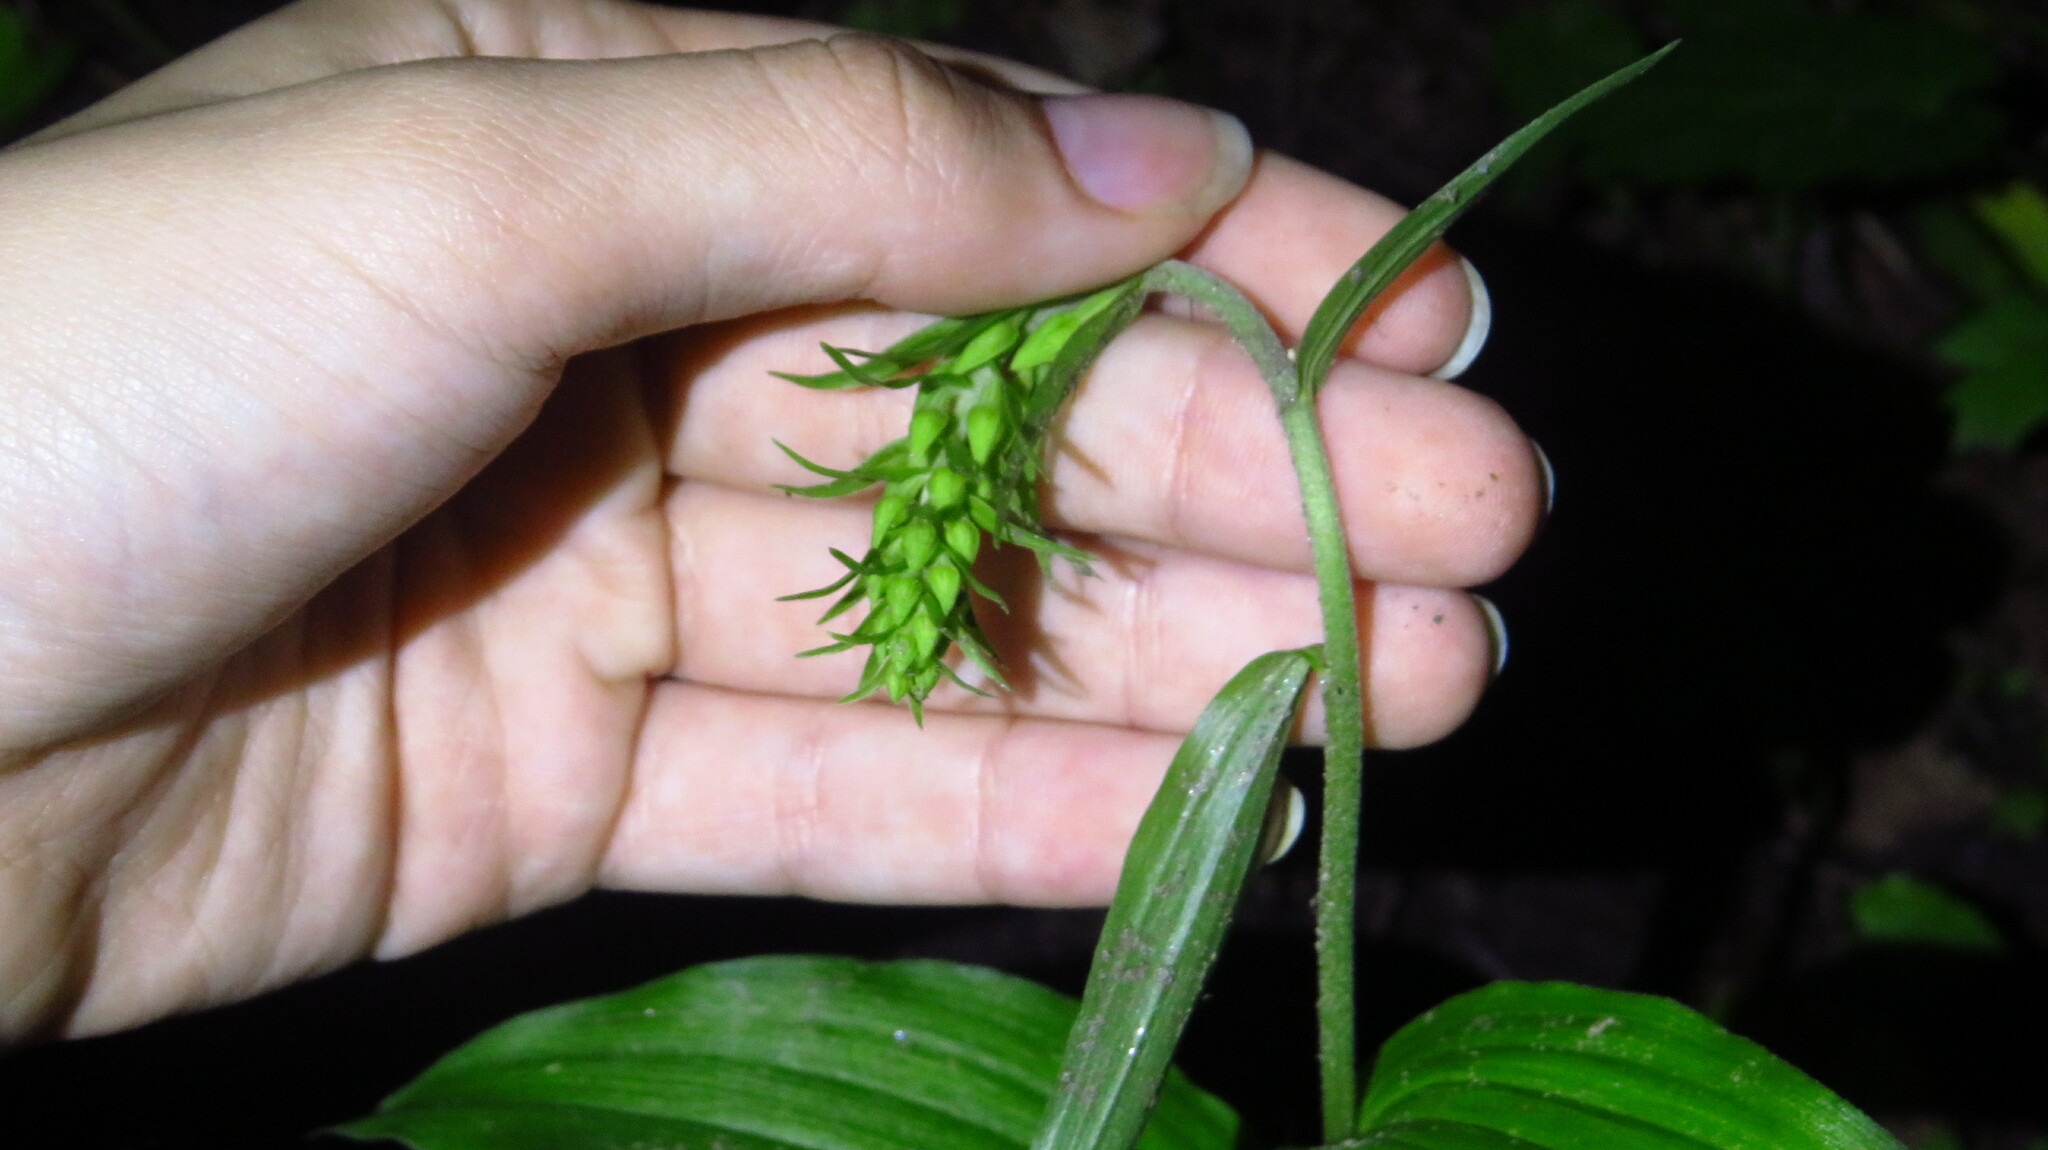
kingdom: Plantae
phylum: Tracheophyta
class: Liliopsida
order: Asparagales
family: Orchidaceae
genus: Epipactis
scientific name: Epipactis helleborine
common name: Broad-leaved helleborine
